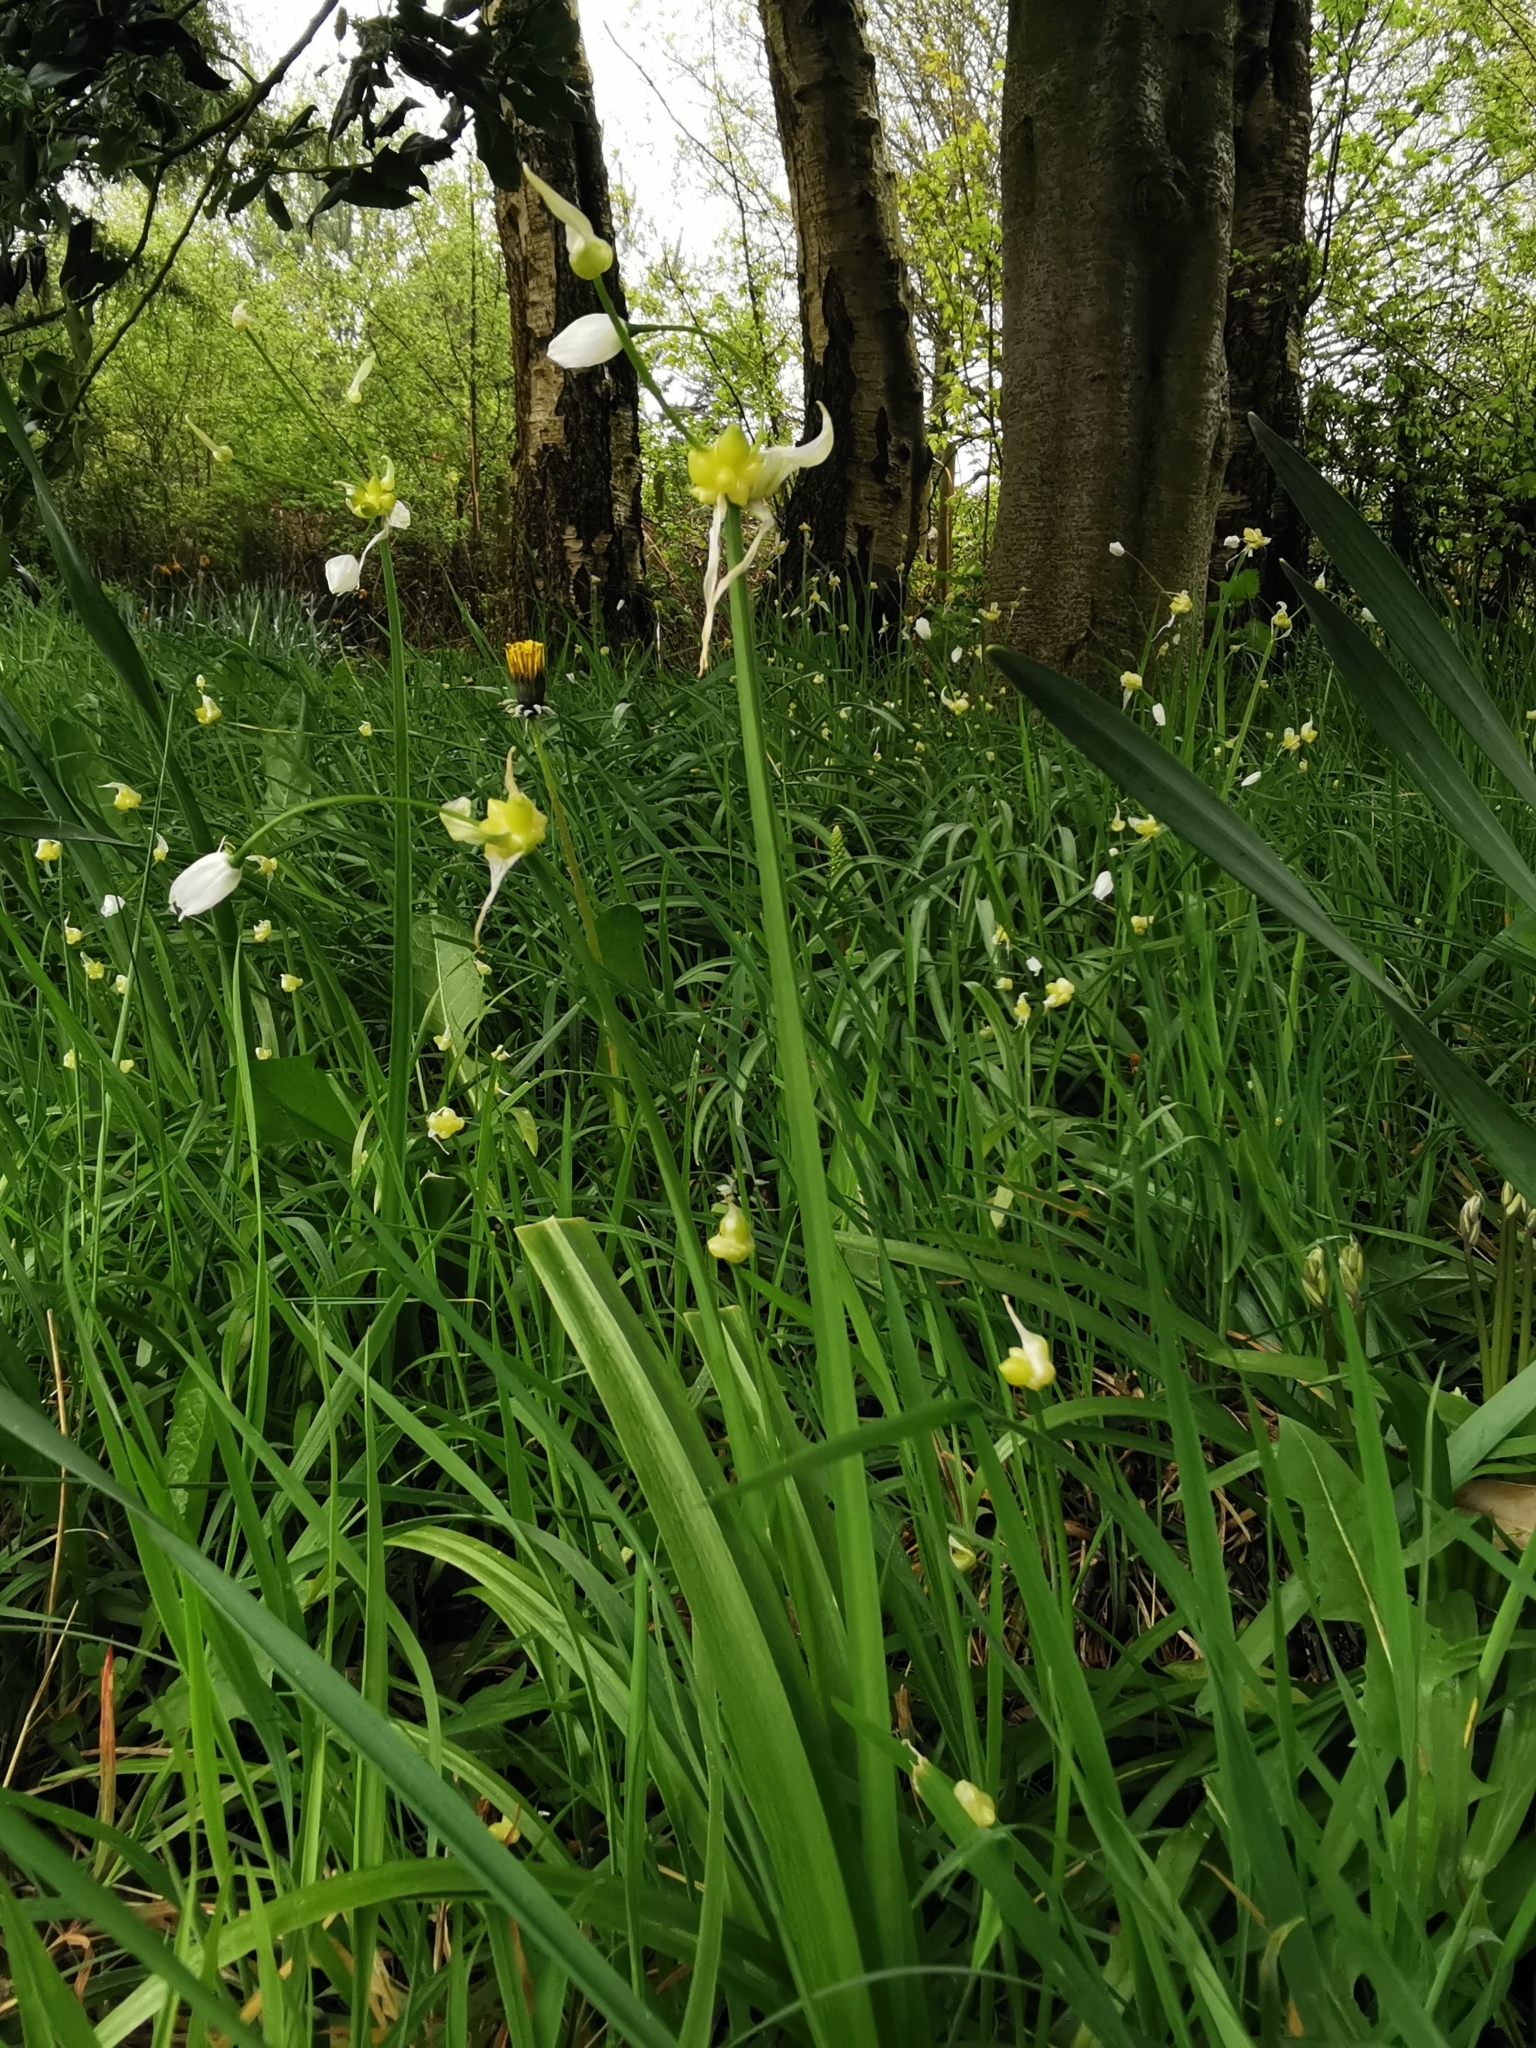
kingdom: Plantae
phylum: Tracheophyta
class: Liliopsida
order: Asparagales
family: Amaryllidaceae
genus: Allium
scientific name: Allium paradoxum
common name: Few-flowered garlic
